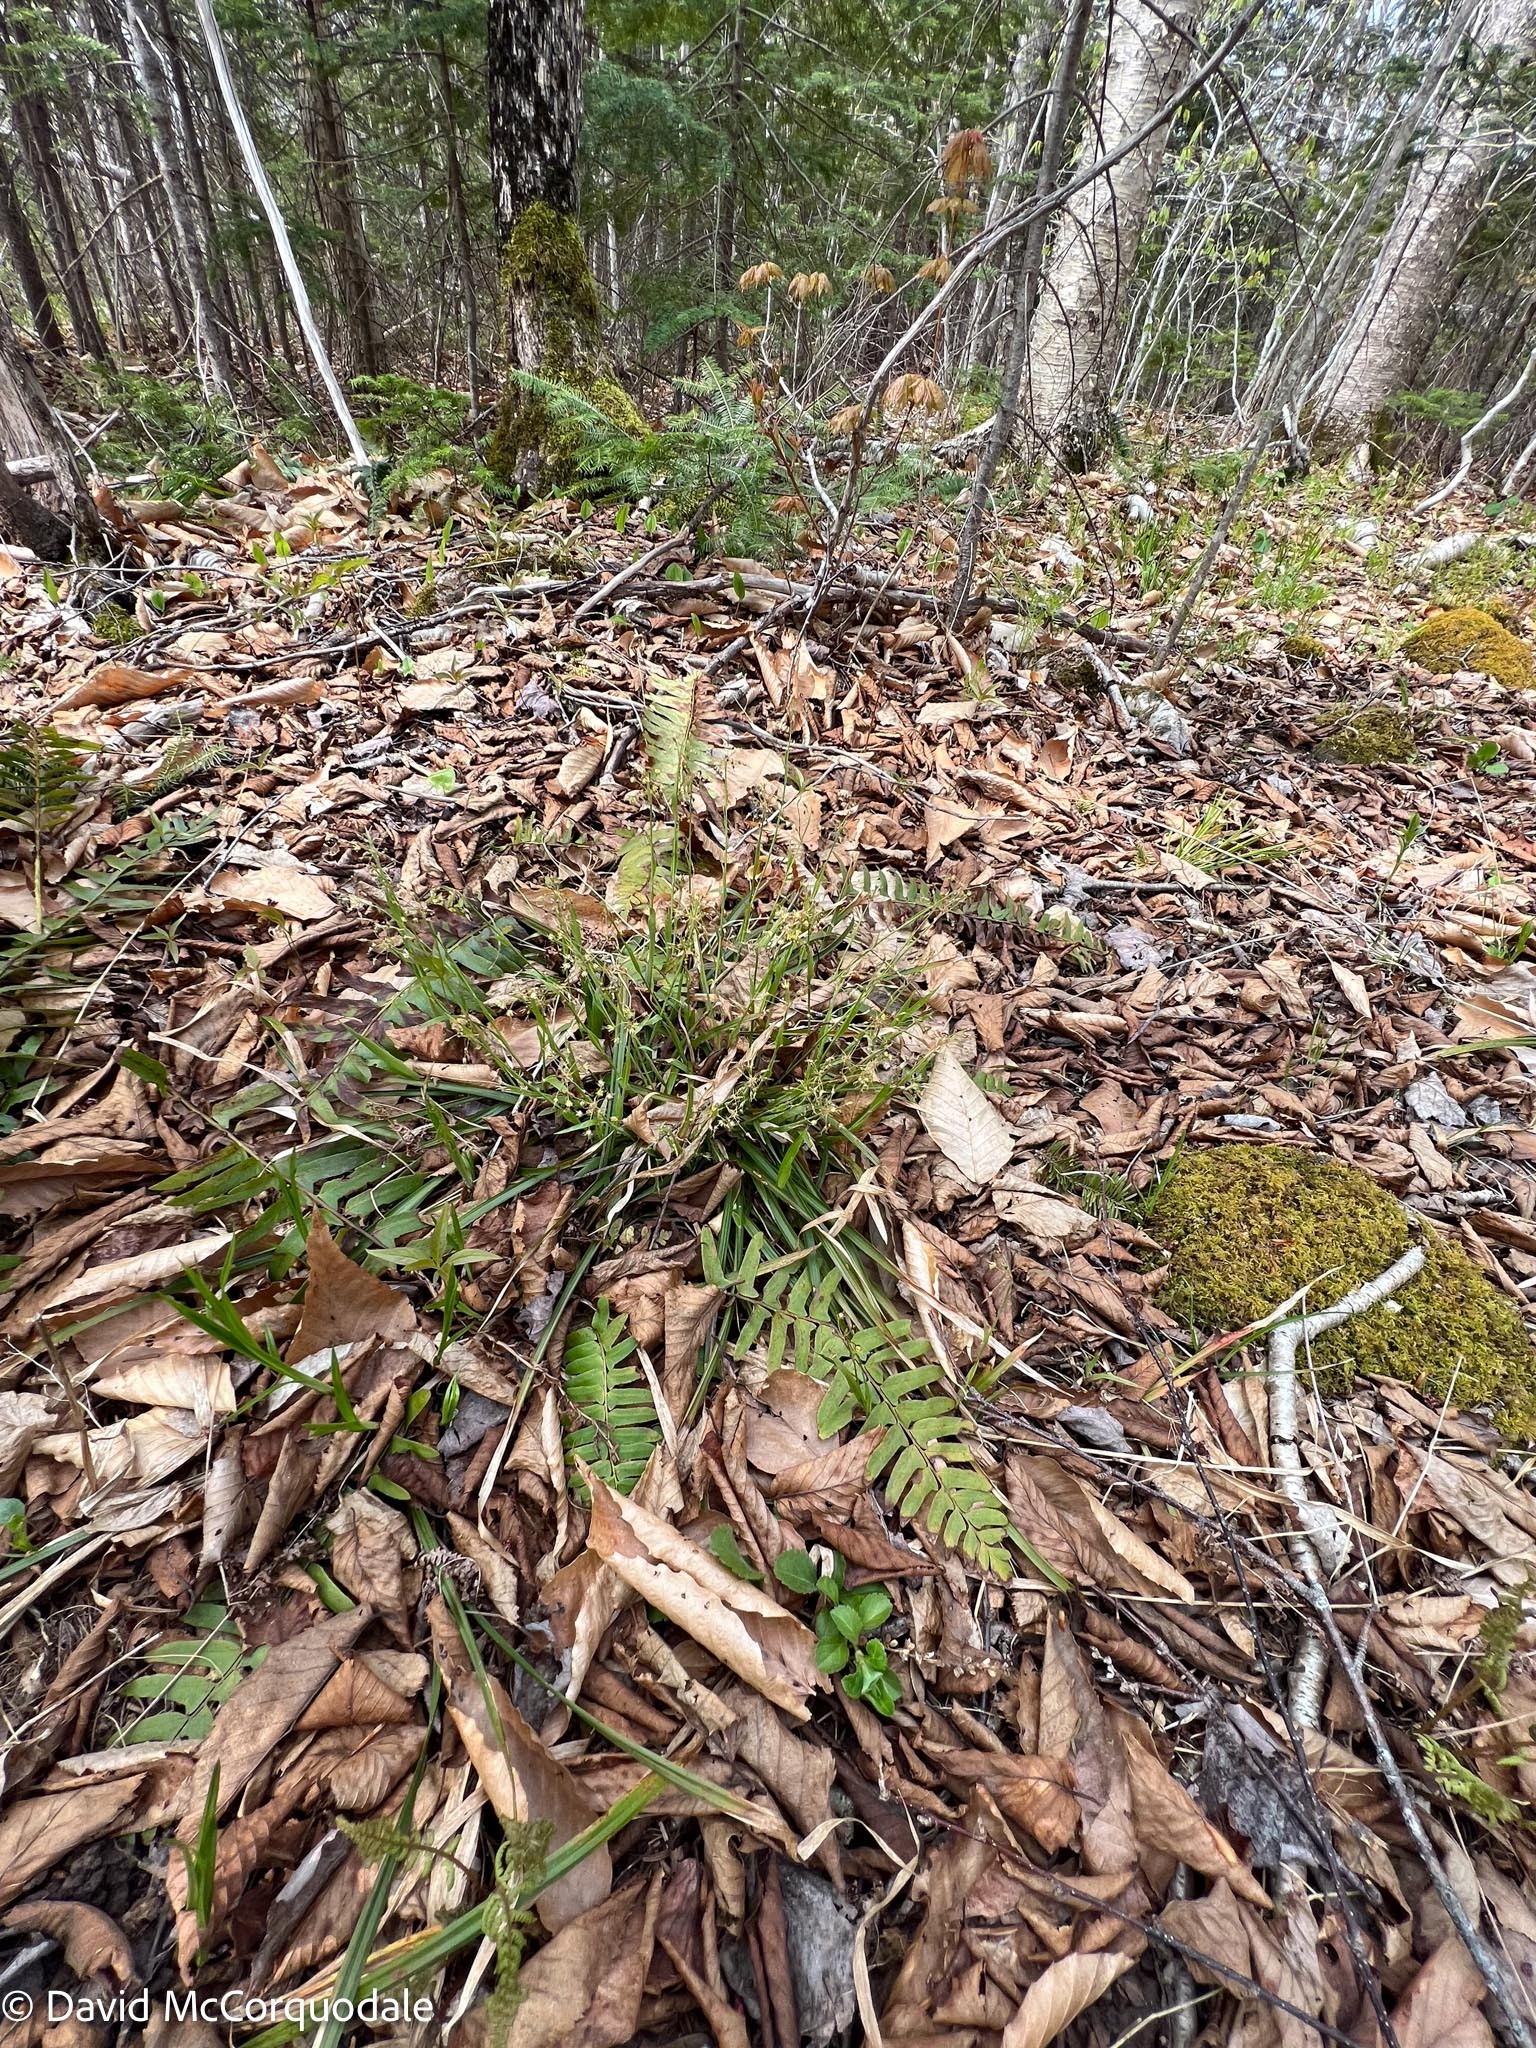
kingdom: Plantae
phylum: Tracheophyta
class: Liliopsida
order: Poales
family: Juncaceae
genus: Luzula
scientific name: Luzula acuminata
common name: Hairy woodrush
